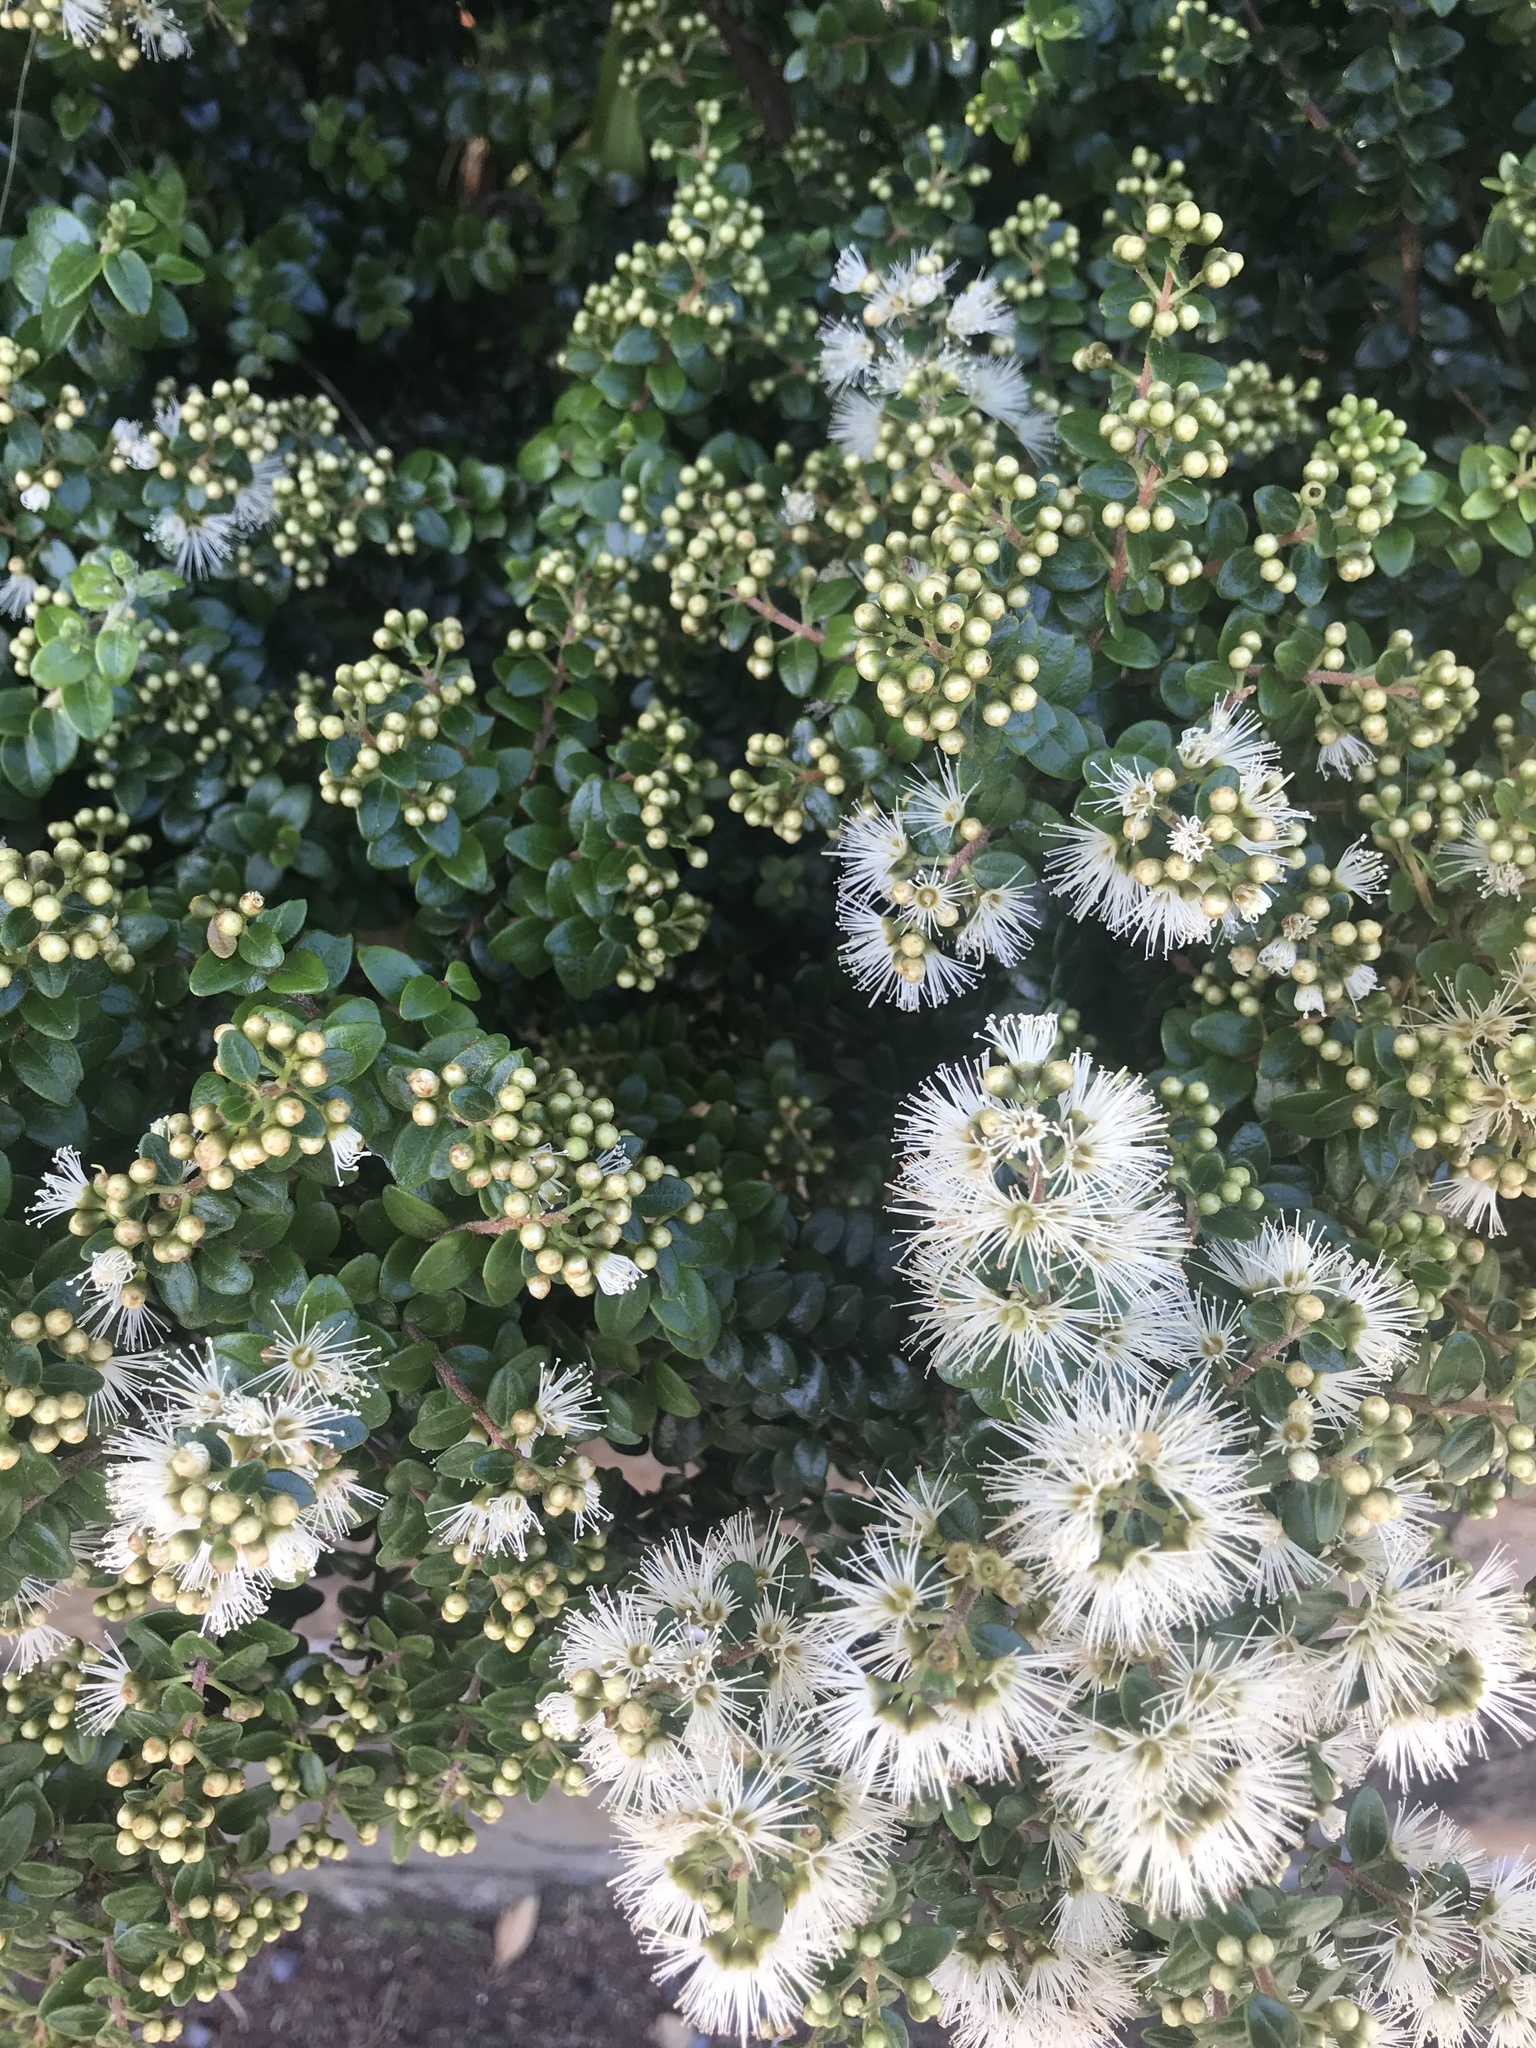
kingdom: Plantae
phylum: Tracheophyta
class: Magnoliopsida
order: Myrtales
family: Myrtaceae
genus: Metrosideros
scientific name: Metrosideros perforata
